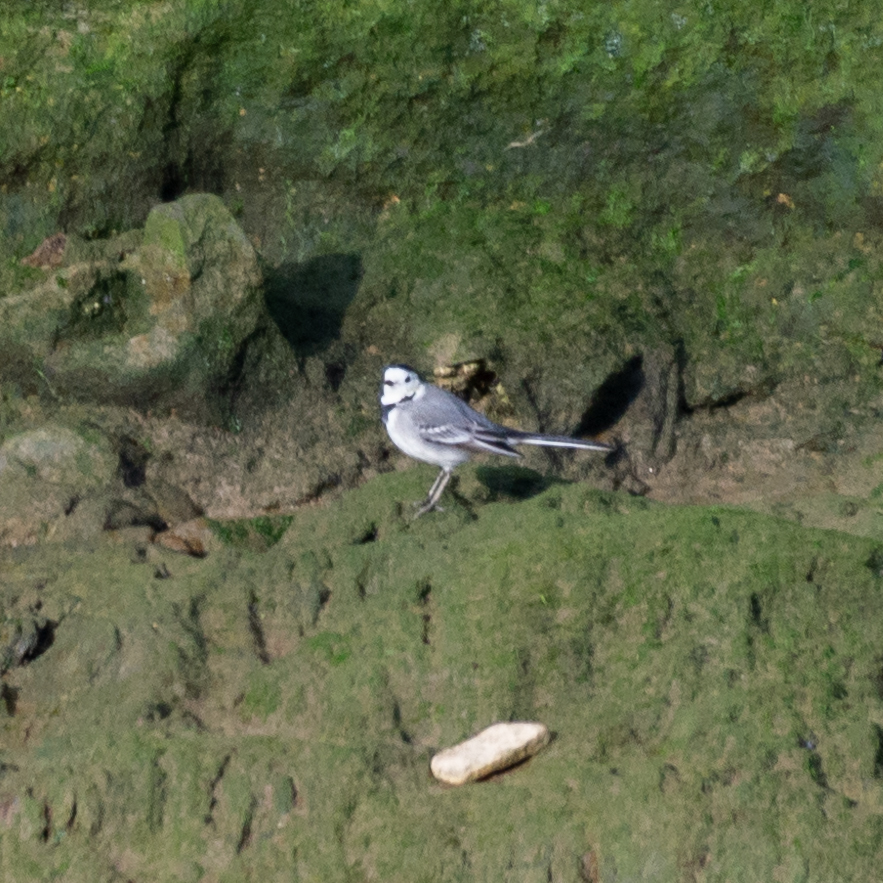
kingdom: Animalia
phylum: Chordata
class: Aves
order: Passeriformes
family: Motacillidae
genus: Motacilla
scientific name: Motacilla alba
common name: White wagtail
